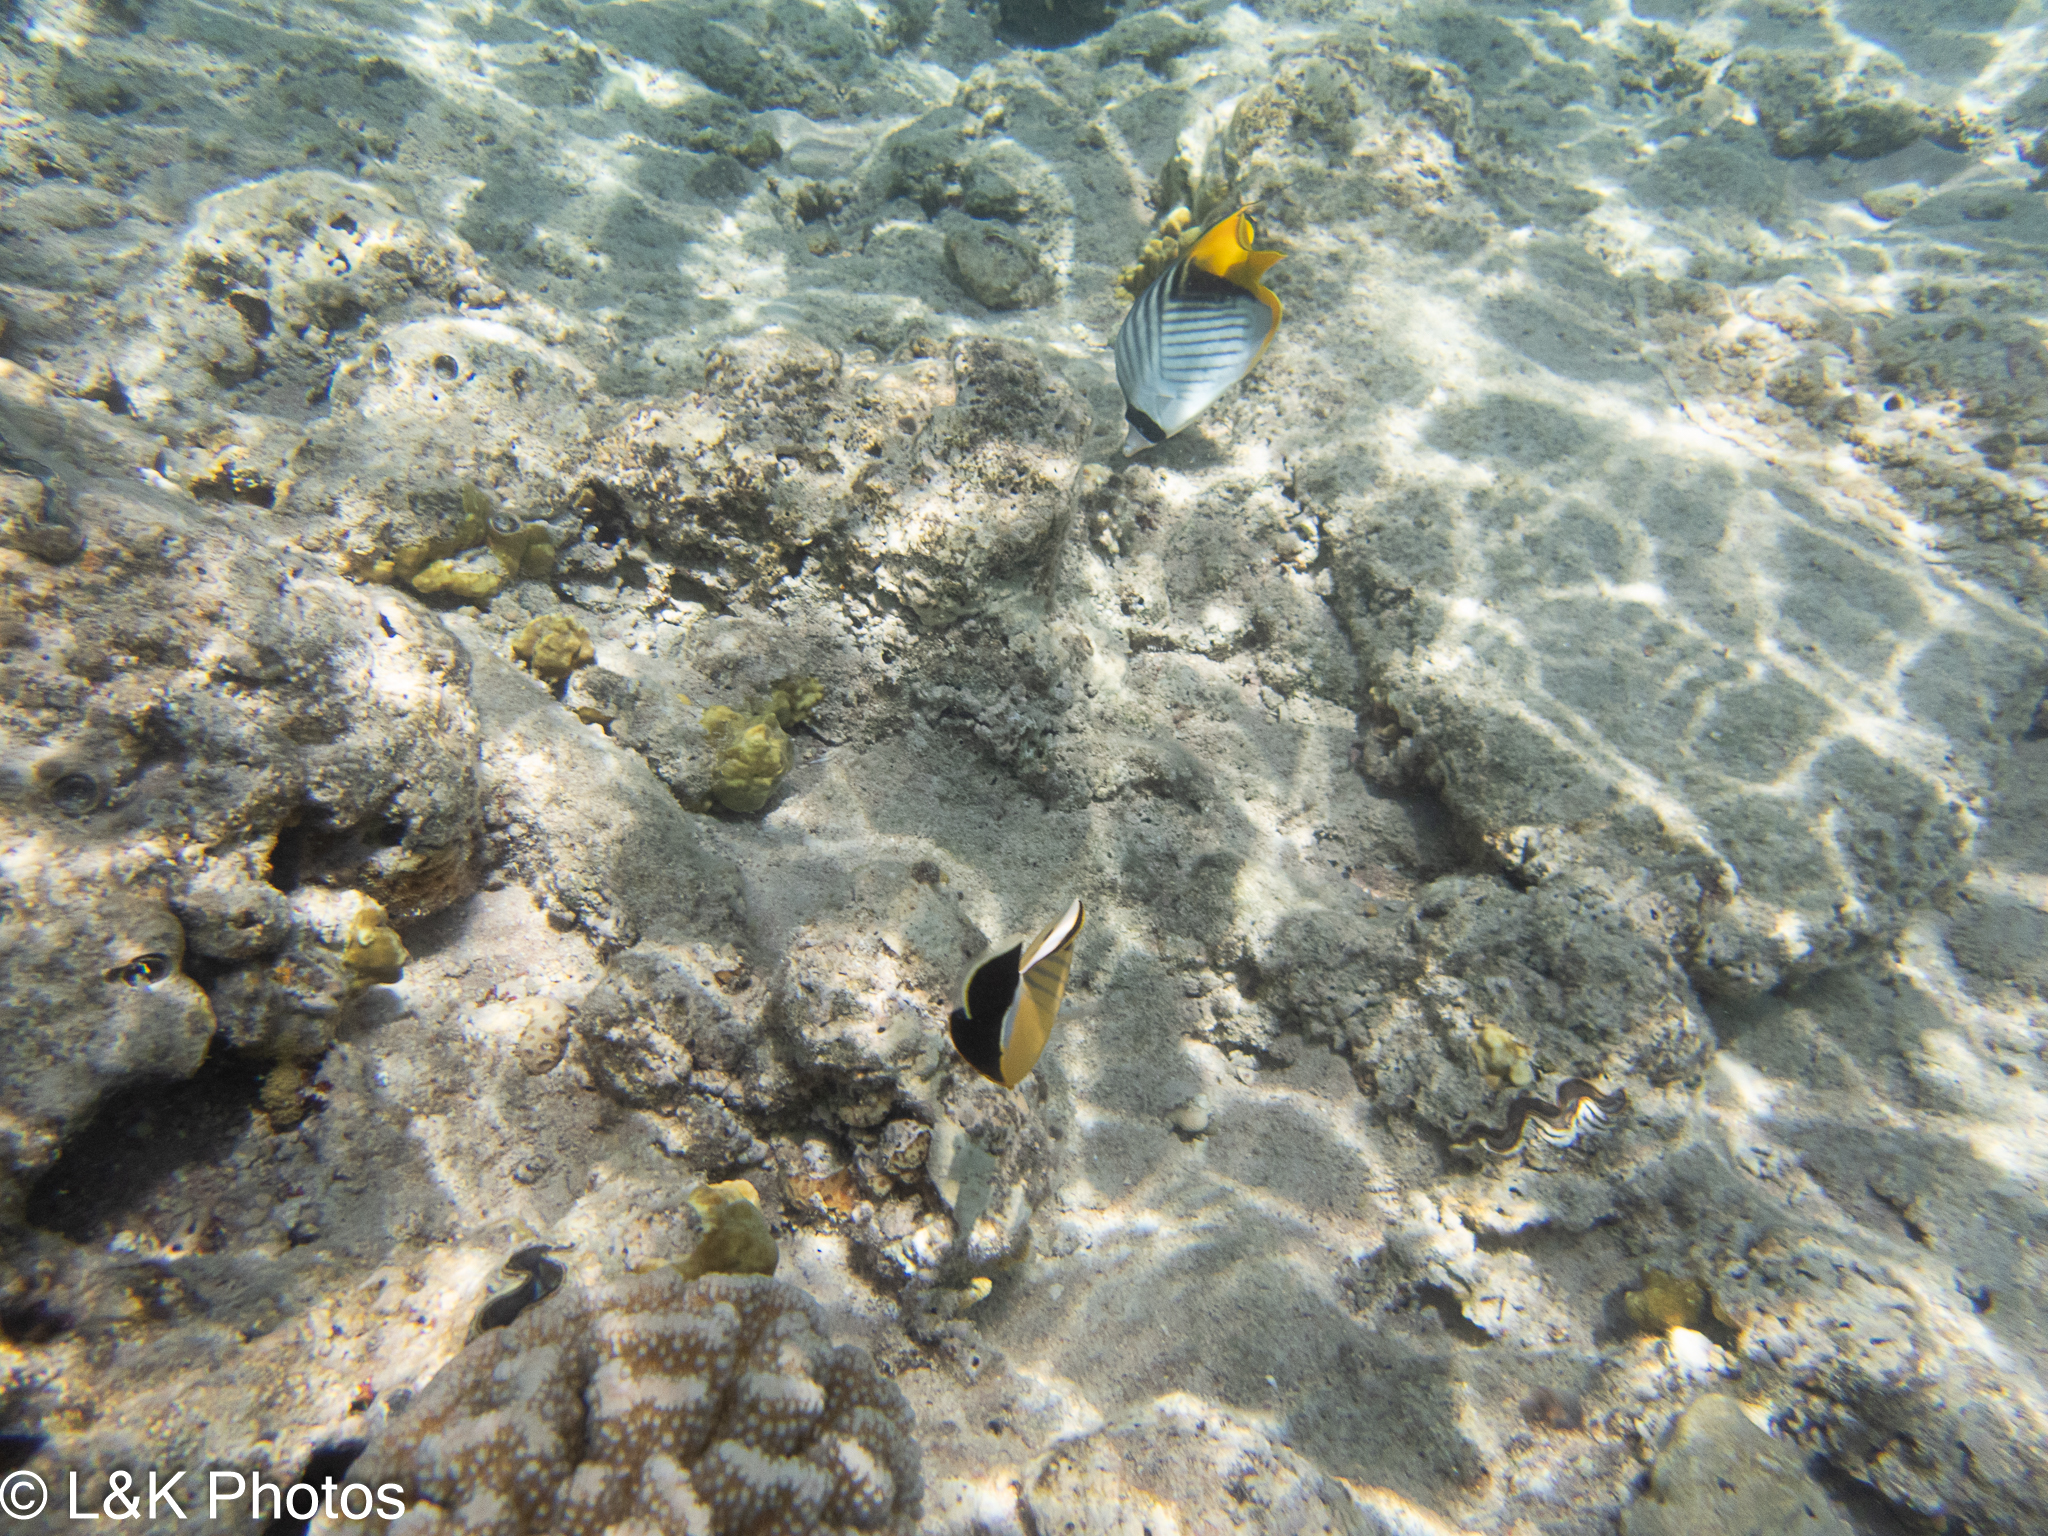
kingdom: Animalia
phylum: Chordata
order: Perciformes
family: Chaetodontidae
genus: Chaetodon
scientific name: Chaetodon auriga
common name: Threadfin butterflyfish
